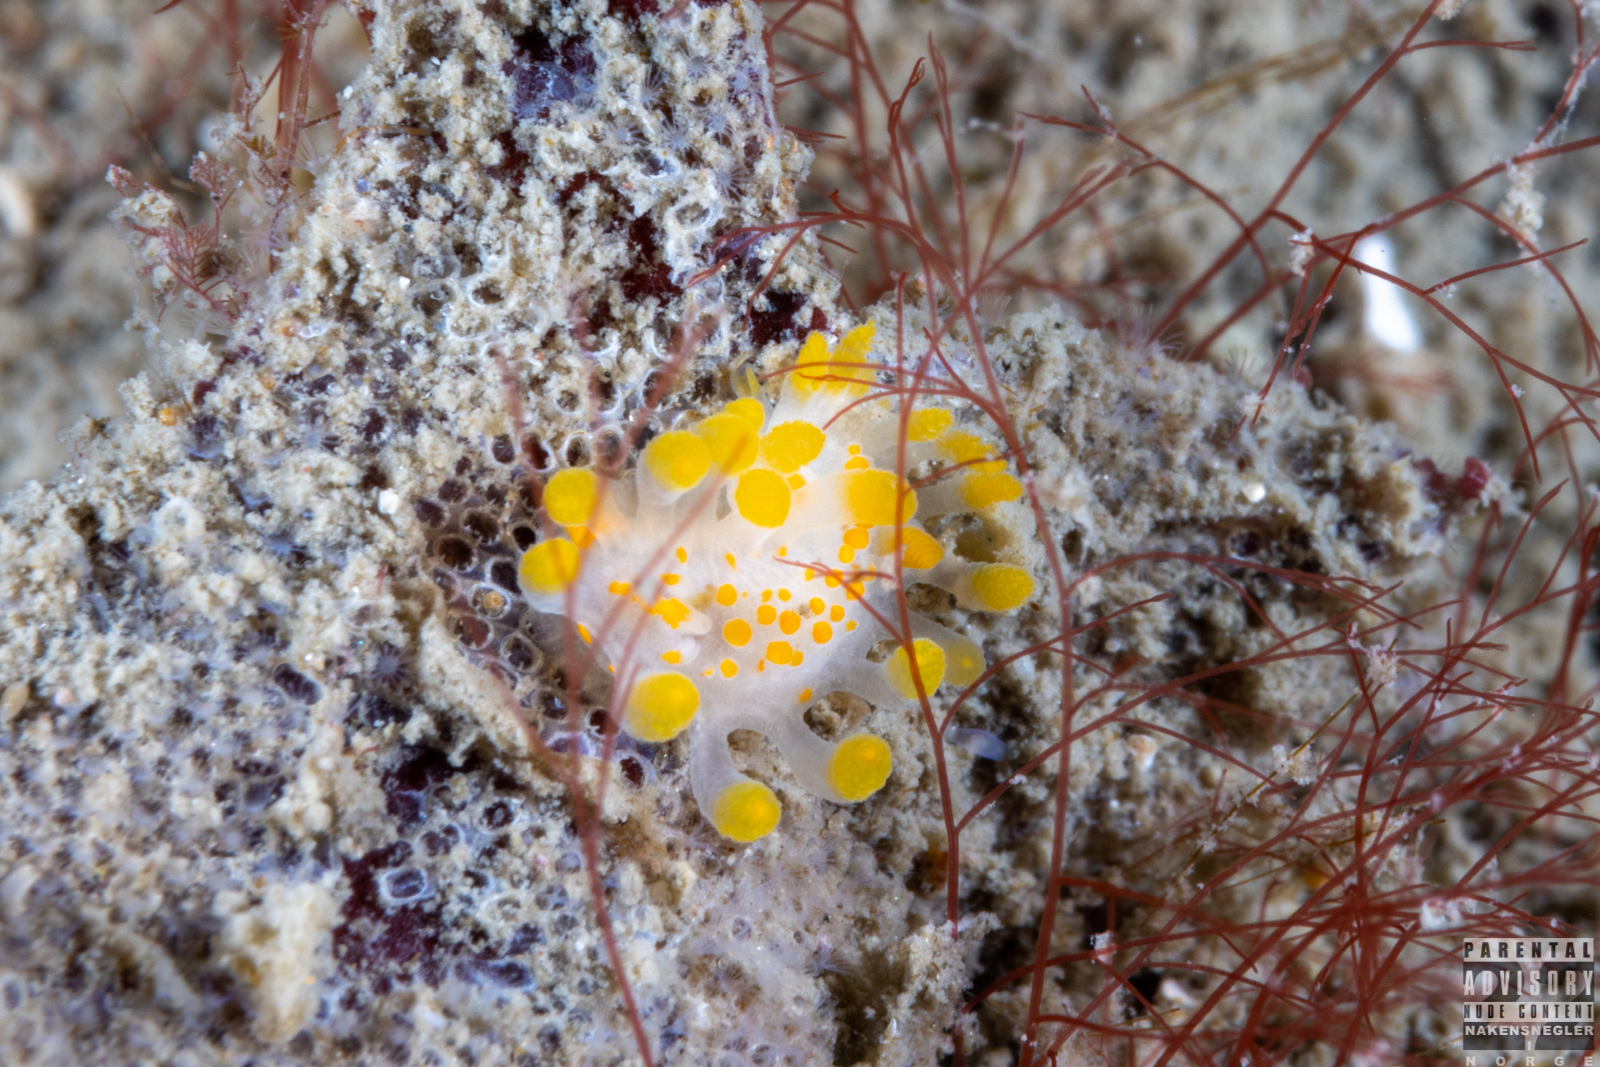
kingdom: Animalia
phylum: Mollusca
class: Gastropoda
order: Nudibranchia
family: Polyceridae
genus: Limacia
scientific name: Limacia clavigera
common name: Orange-clubbed sea slug
